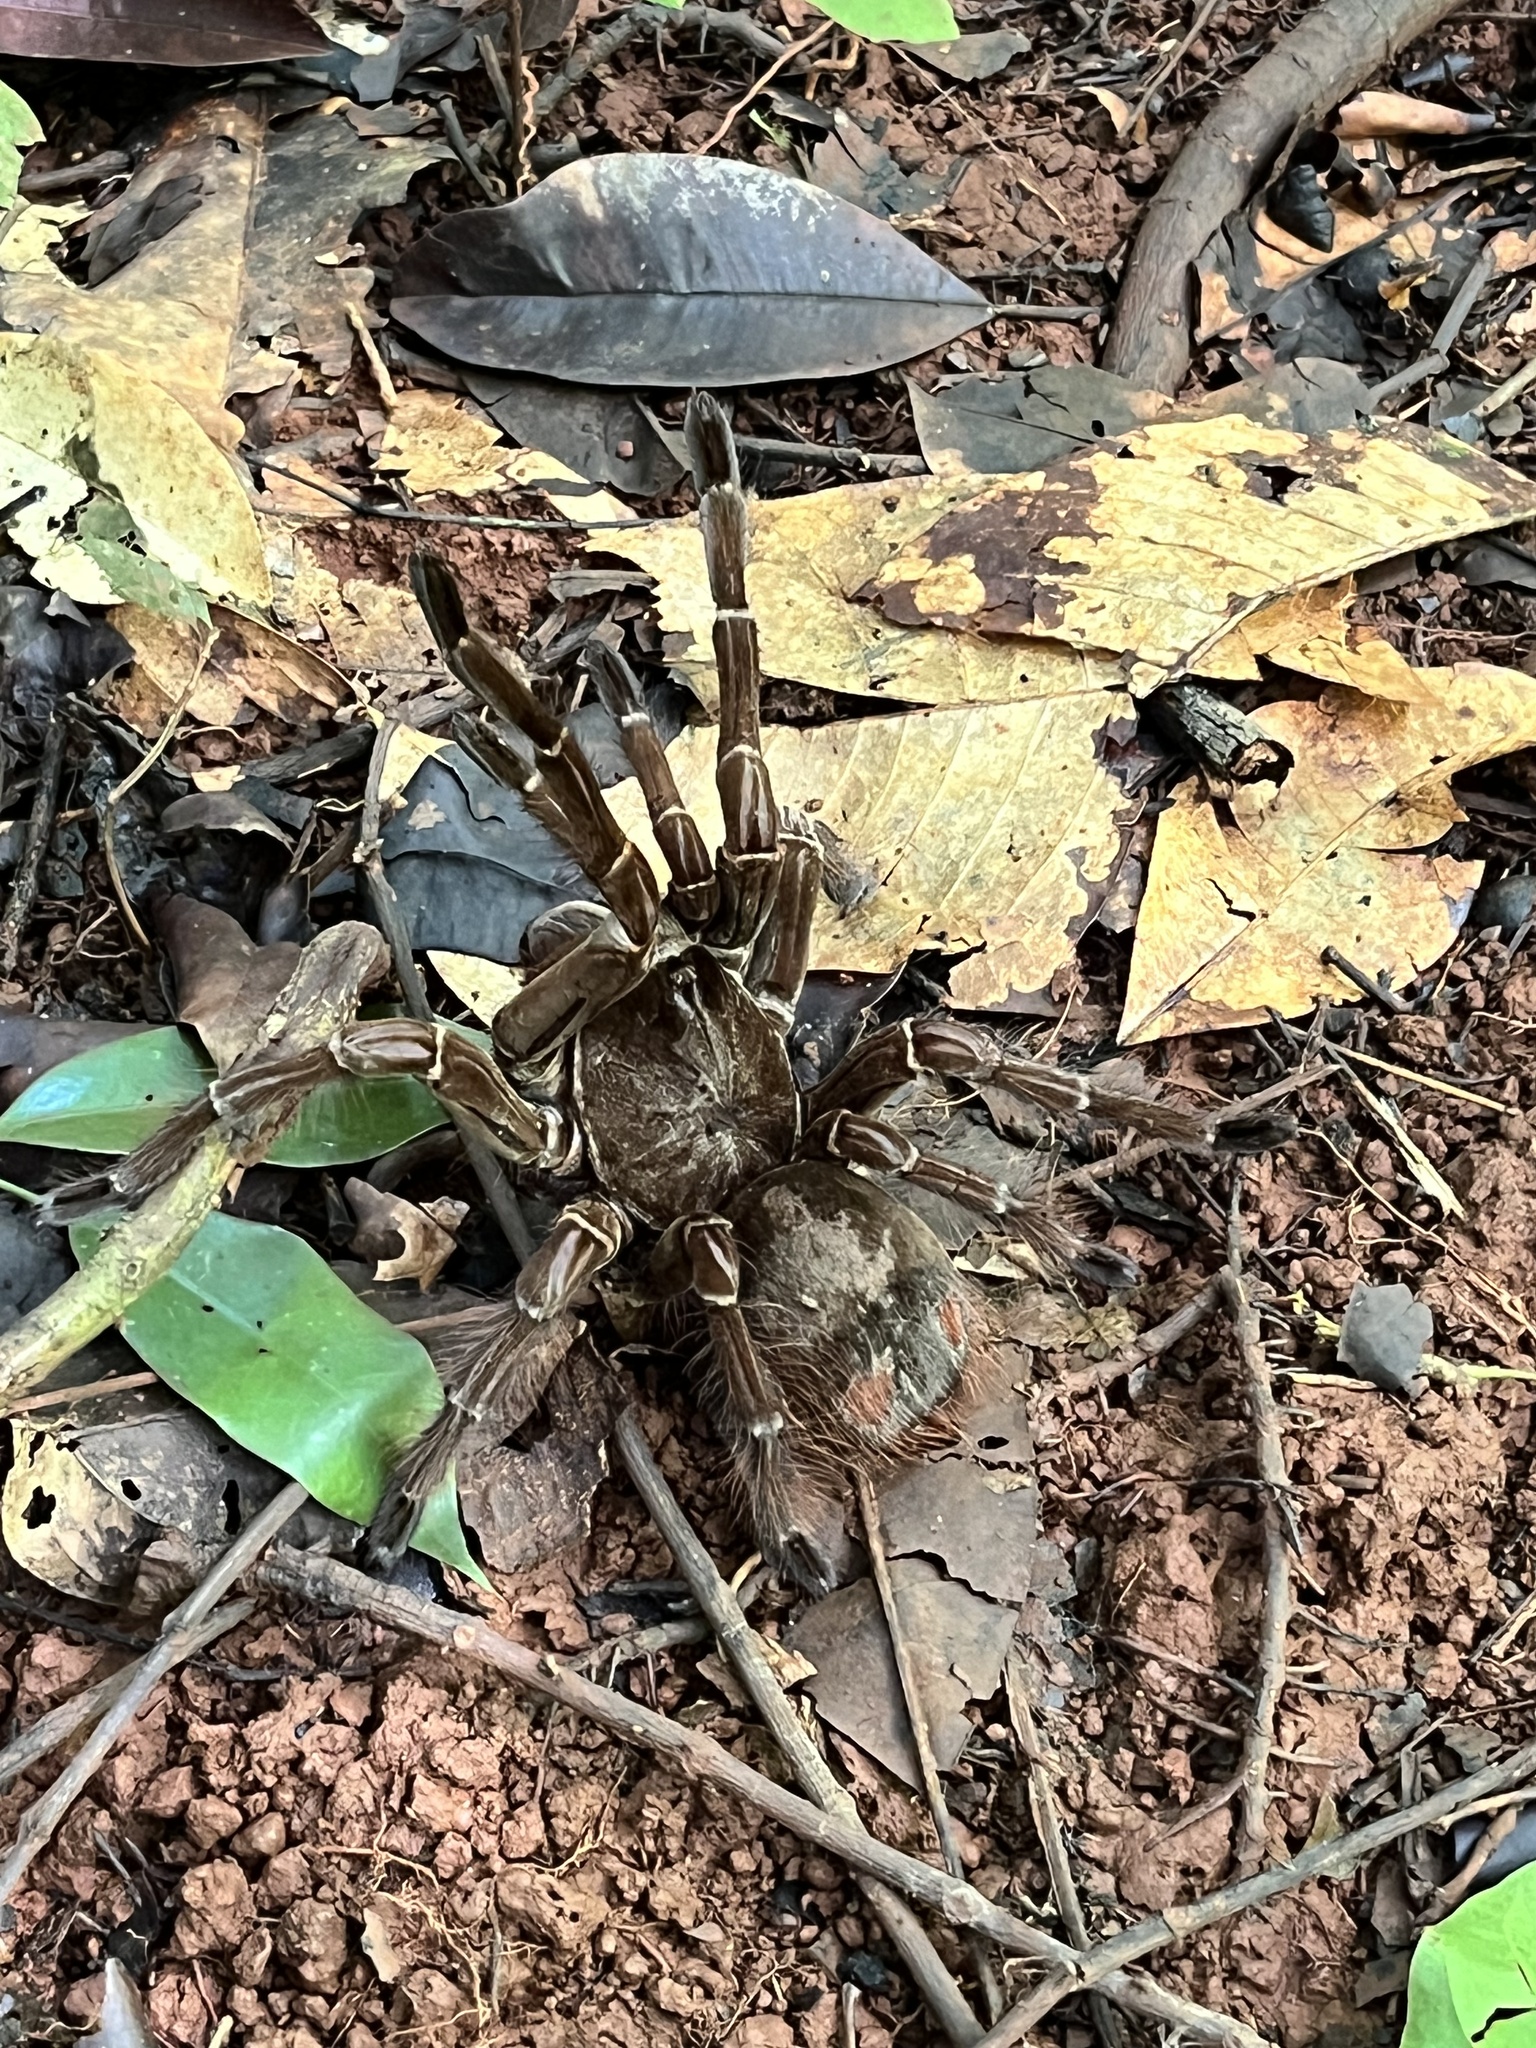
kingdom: Animalia
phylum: Arthropoda
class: Arachnida
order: Araneae
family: Theraphosidae
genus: Theraphosa
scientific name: Theraphosa stirmi
